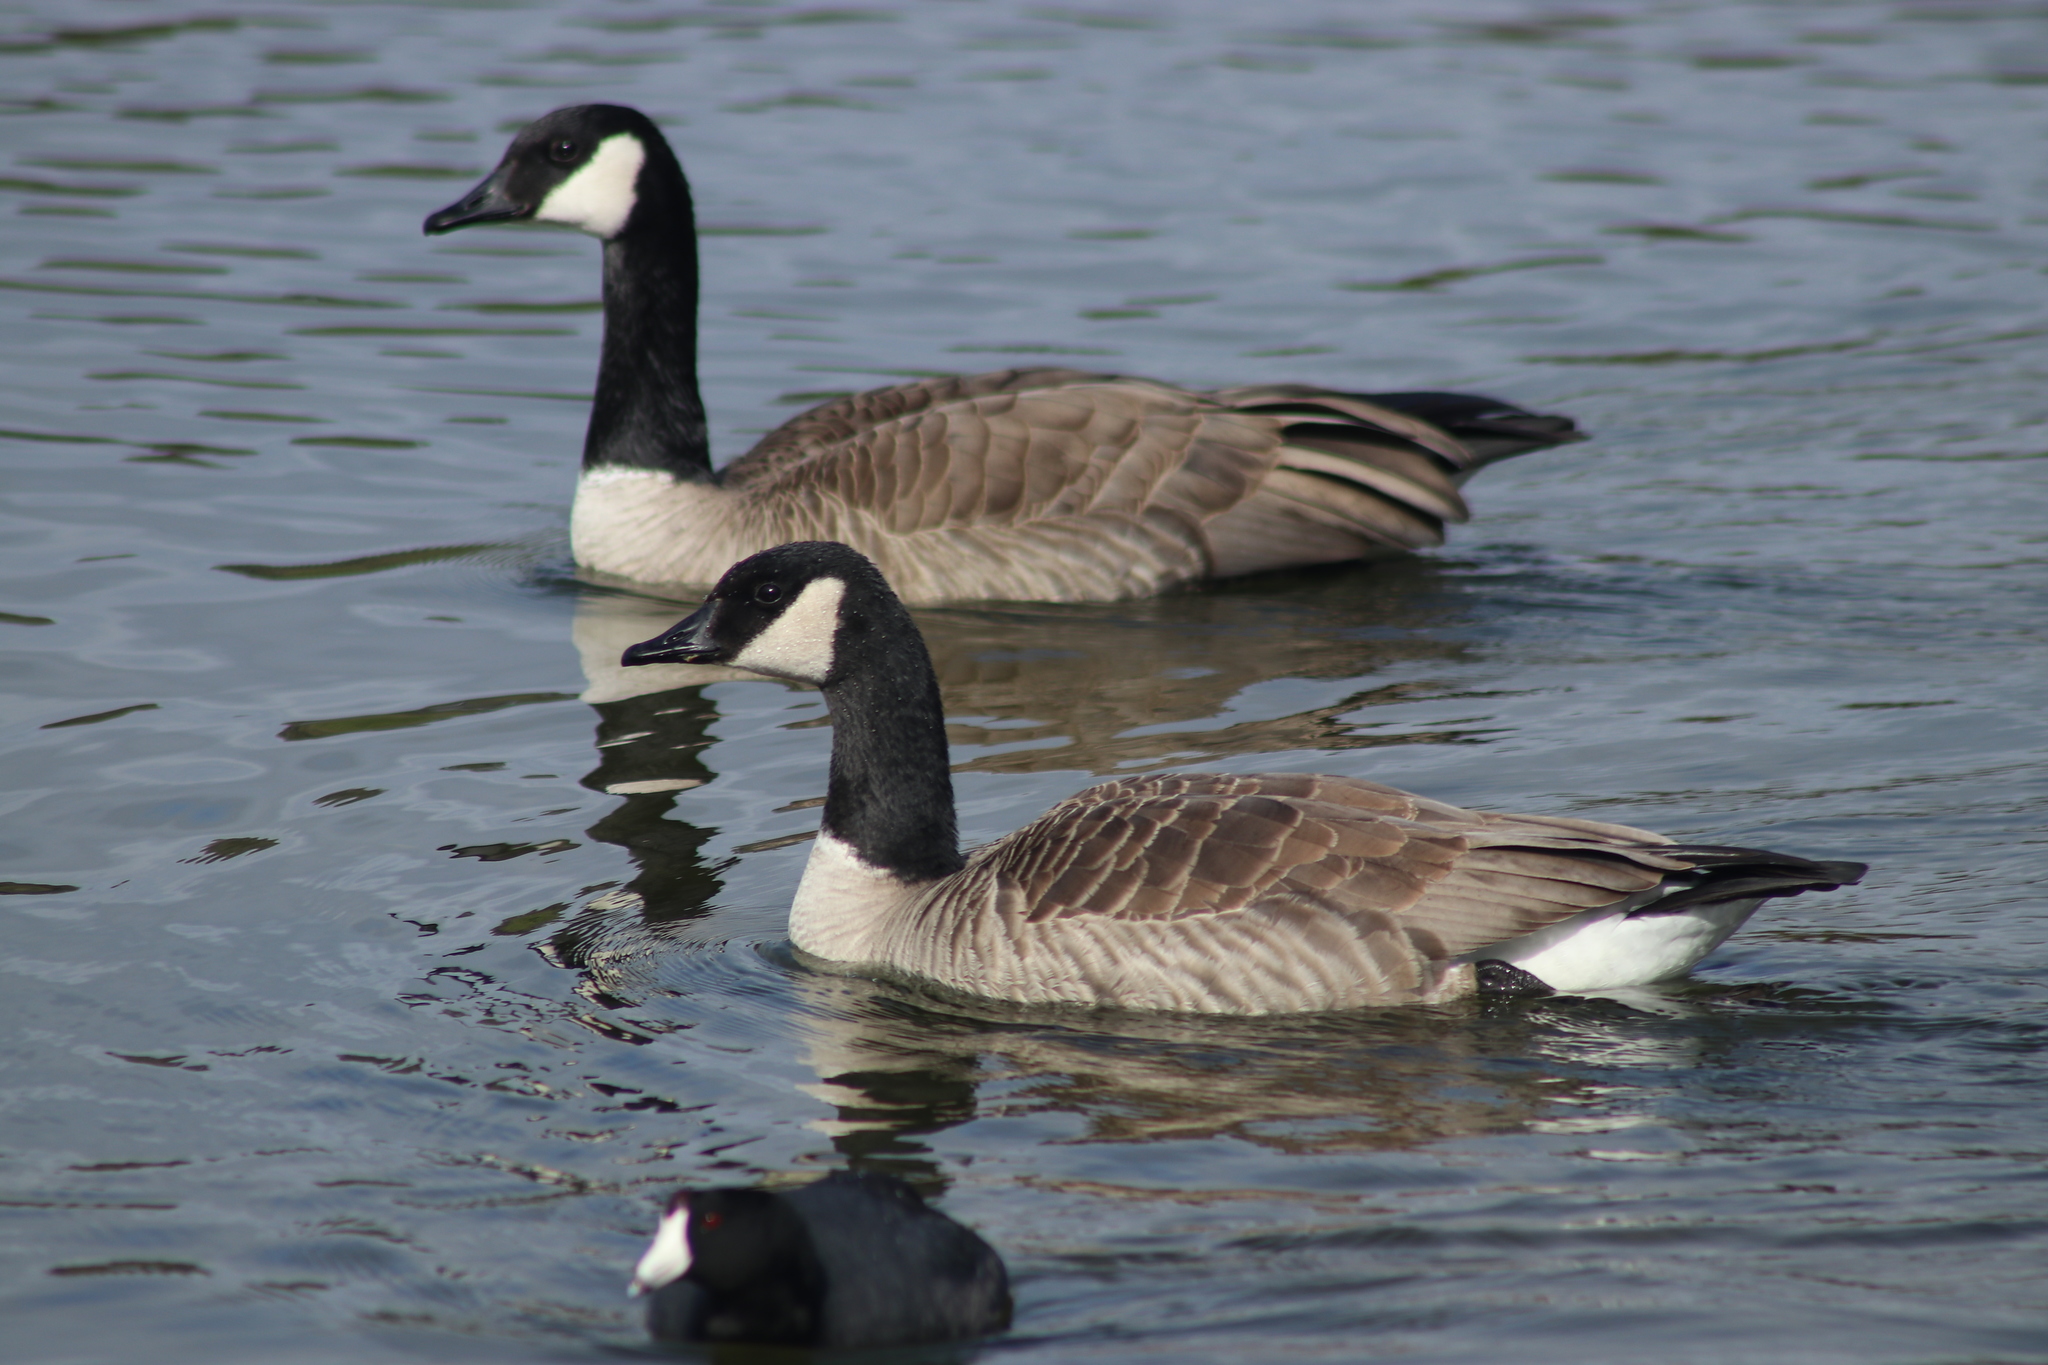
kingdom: Animalia
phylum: Chordata
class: Aves
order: Anseriformes
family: Anatidae
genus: Branta
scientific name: Branta canadensis
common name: Canada goose
